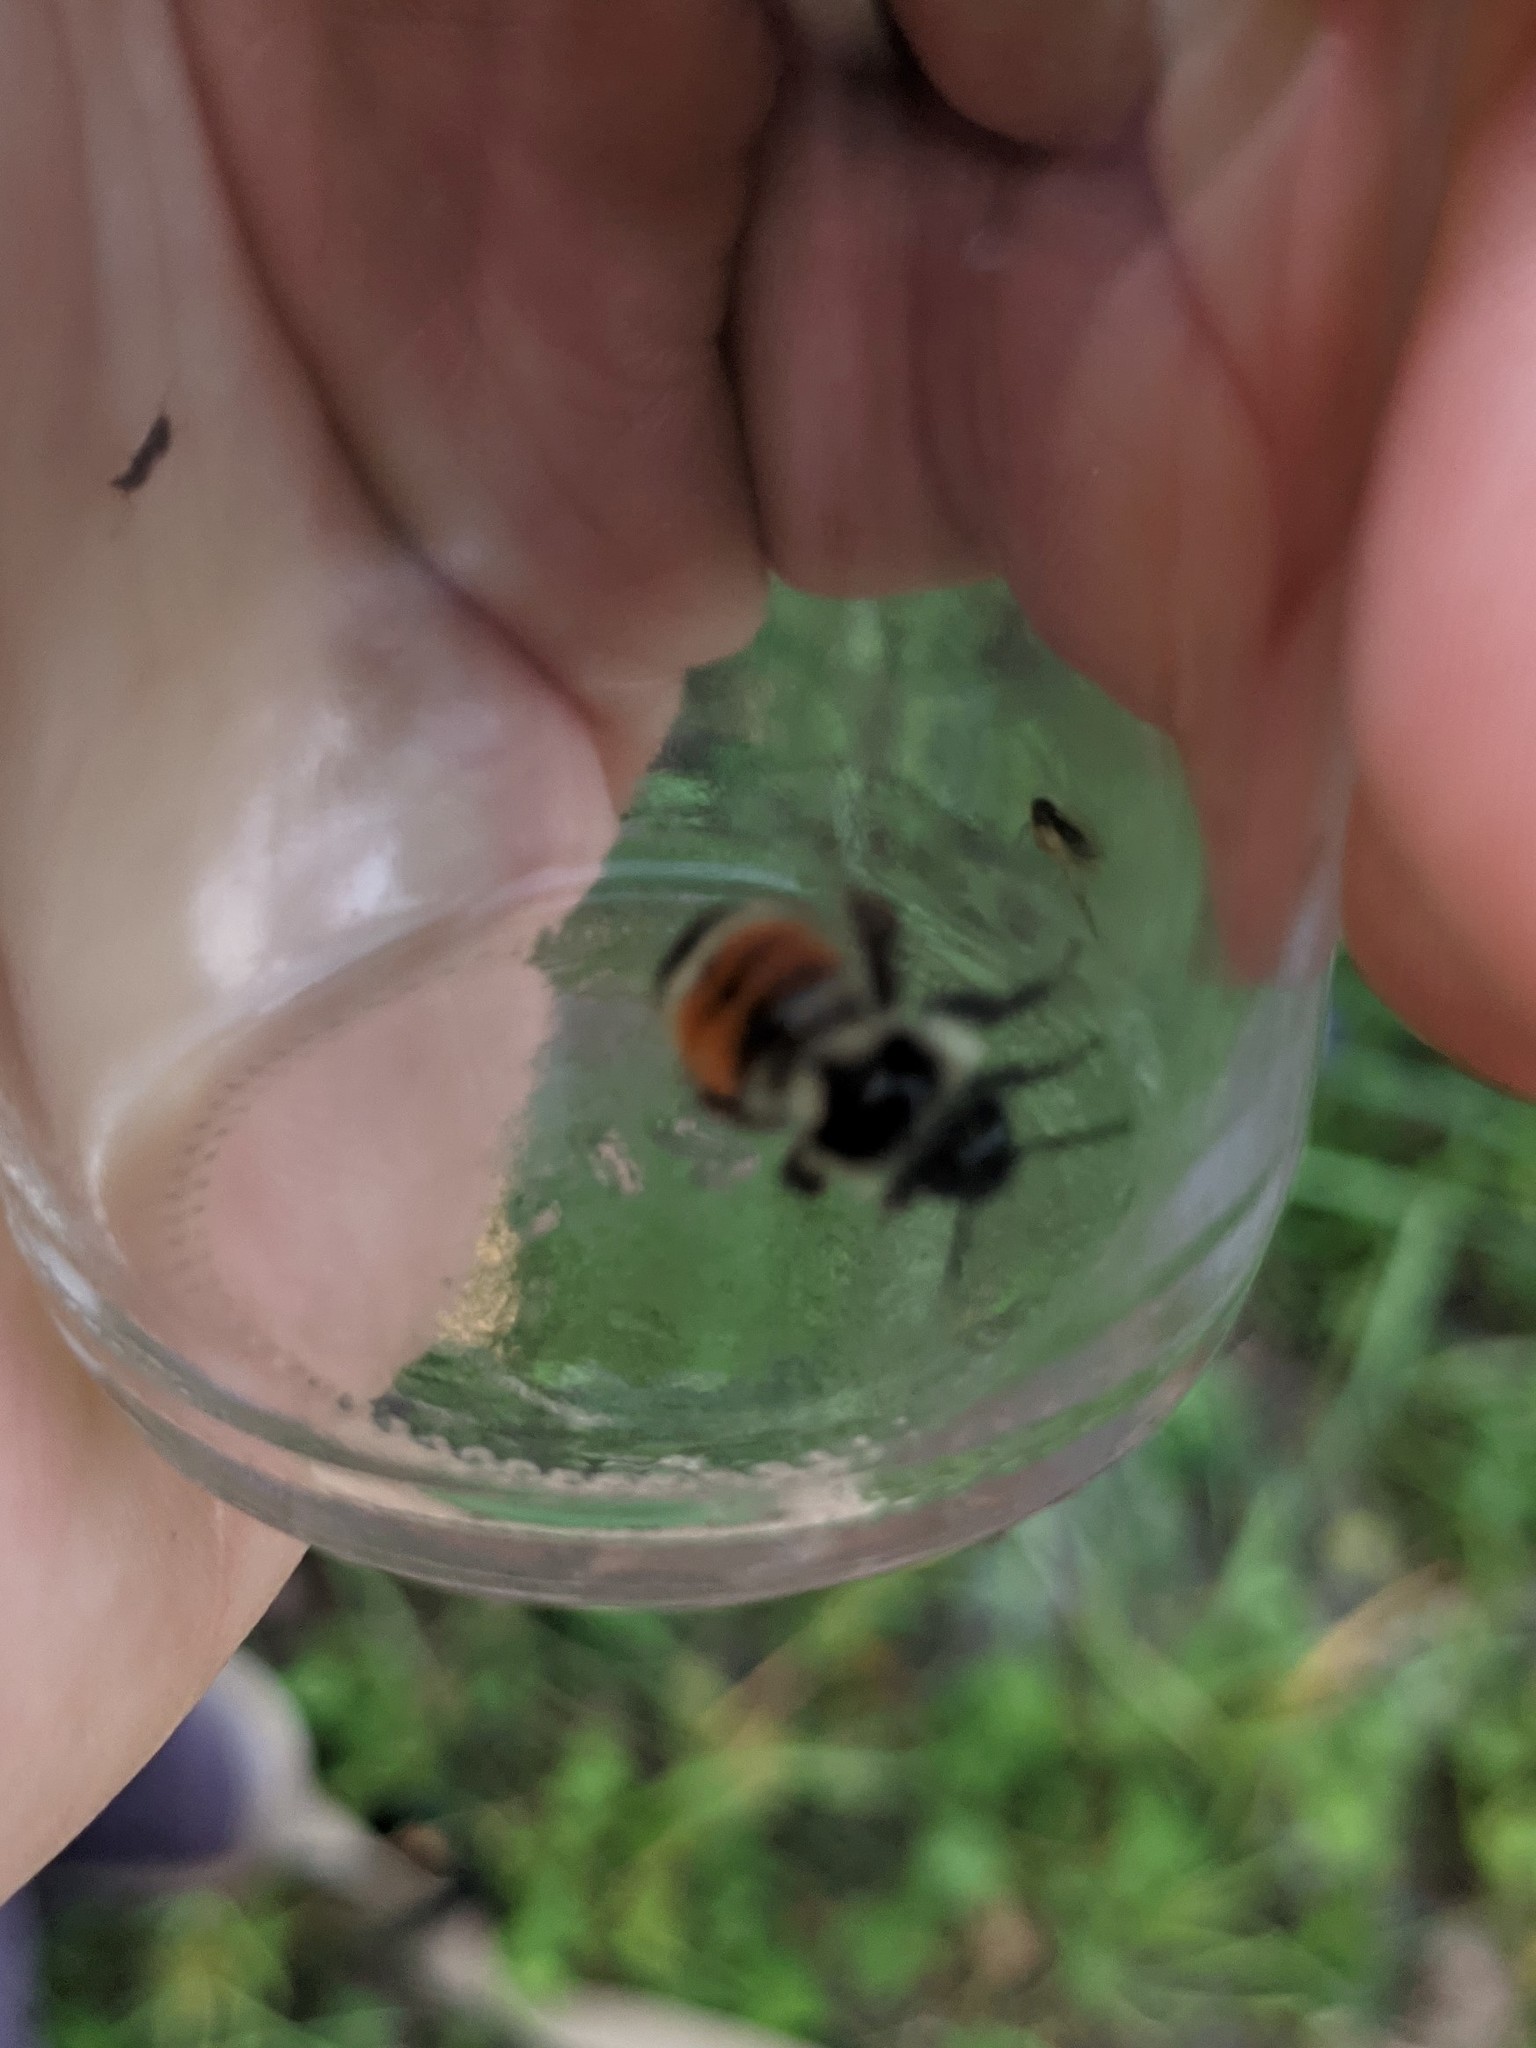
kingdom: Animalia
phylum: Arthropoda
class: Insecta
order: Hymenoptera
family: Apidae
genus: Bombus
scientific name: Bombus ternarius
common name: Tri-colored bumble bee
